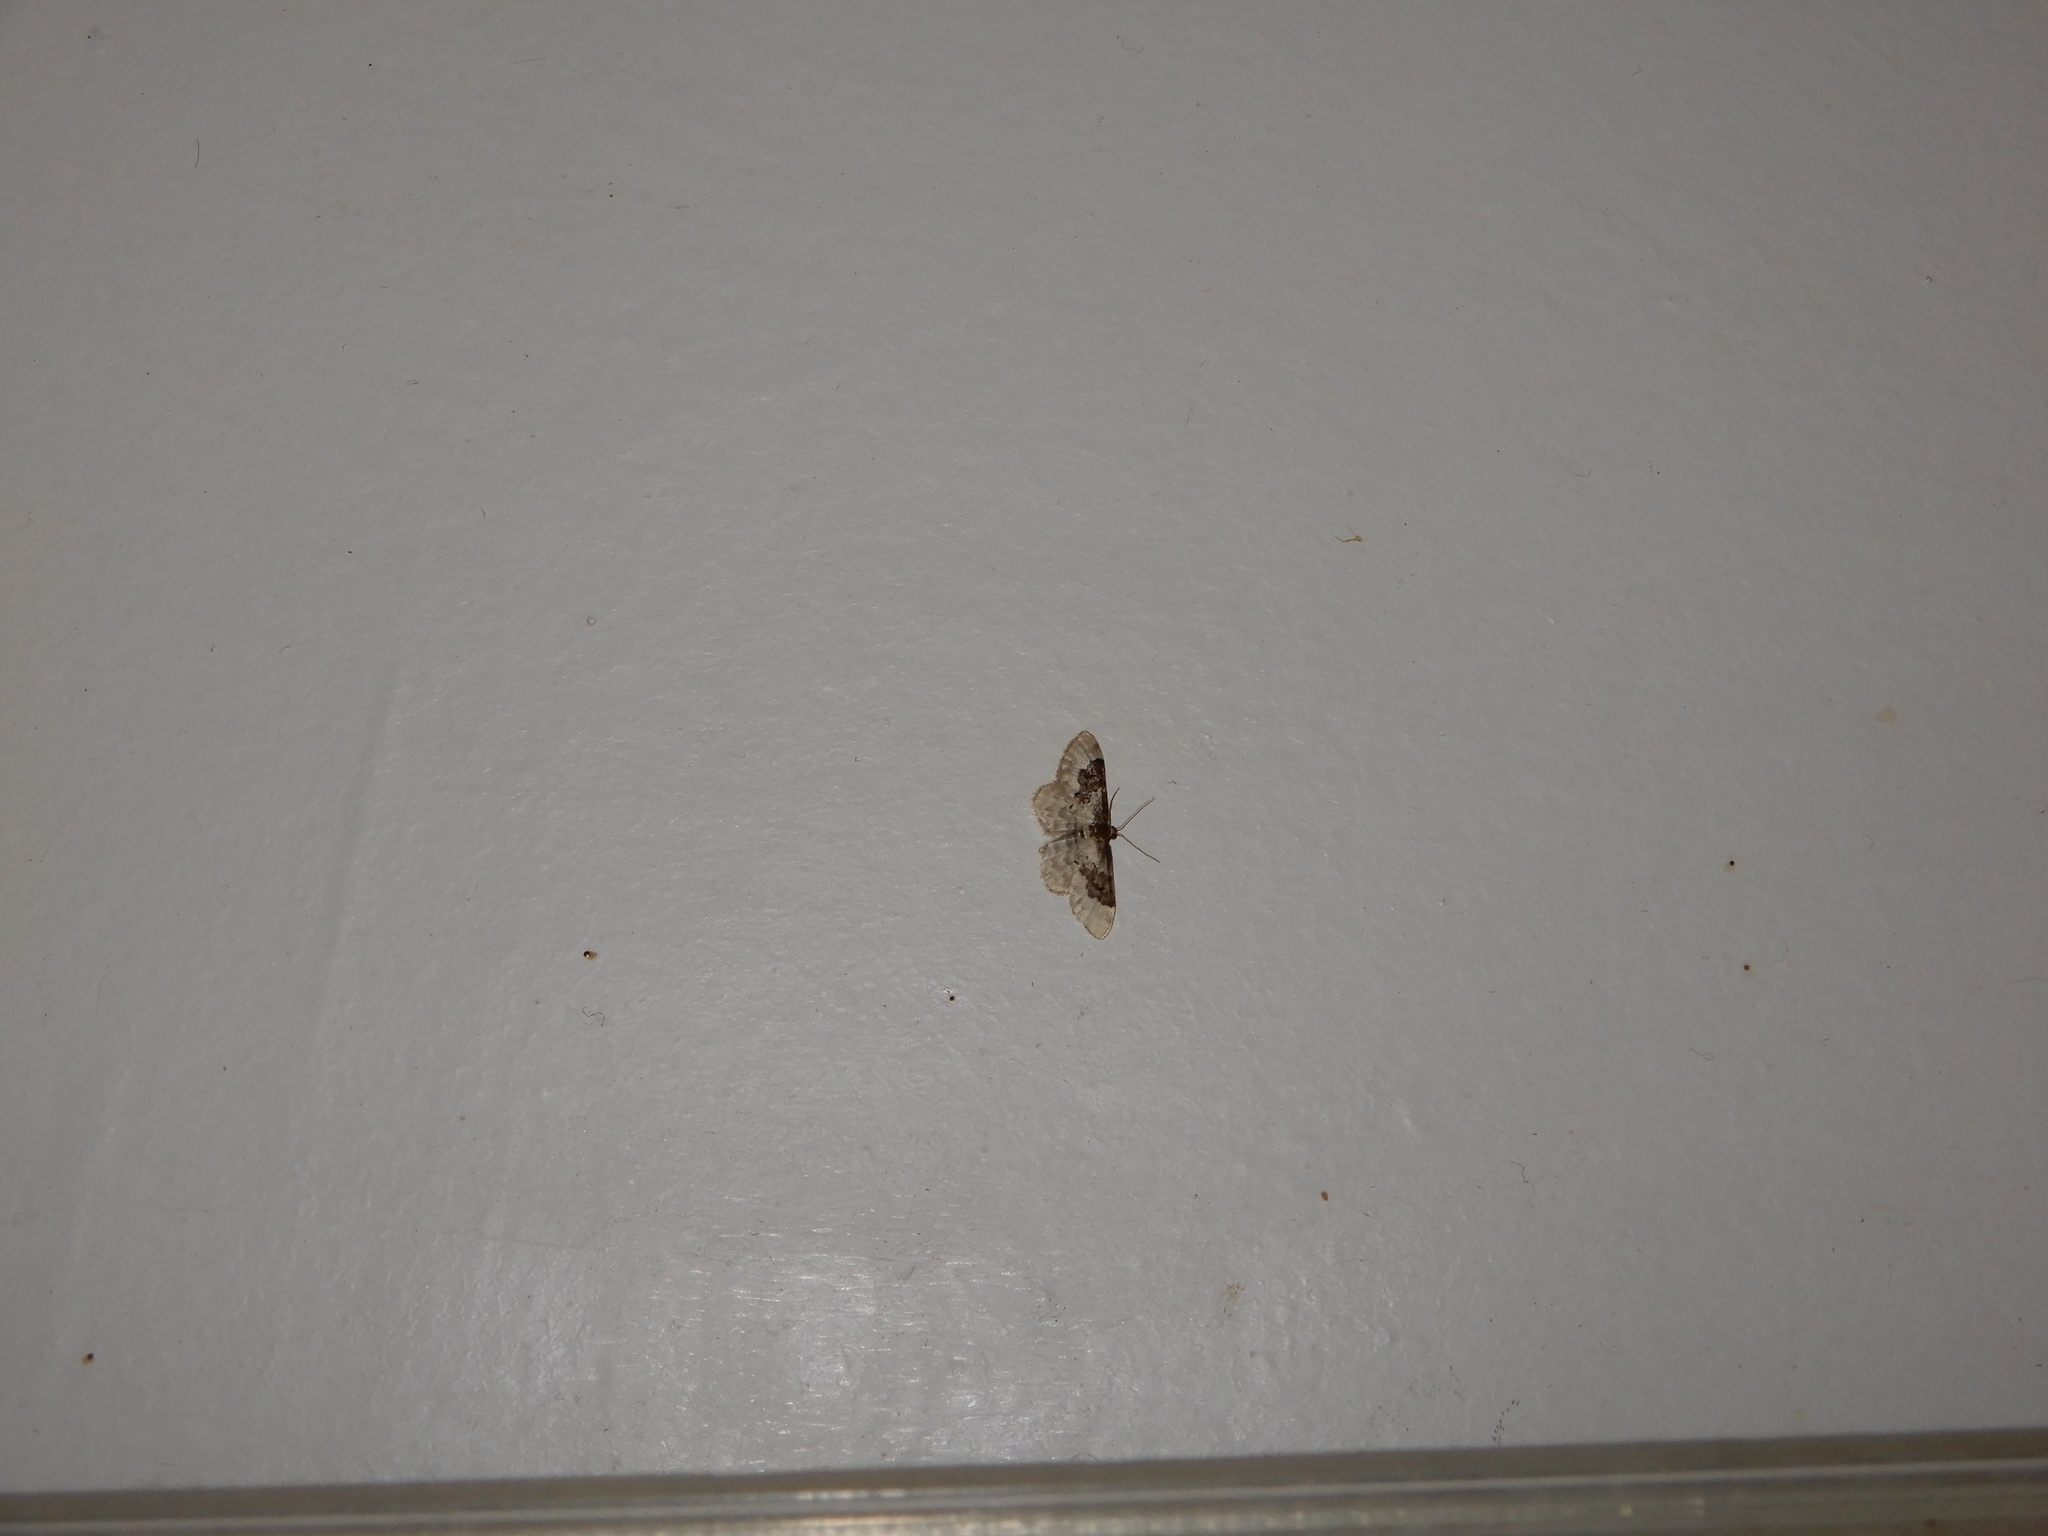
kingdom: Animalia
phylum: Arthropoda
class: Insecta
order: Lepidoptera
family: Geometridae
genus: Idaea
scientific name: Idaea rusticata
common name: Least carpet
